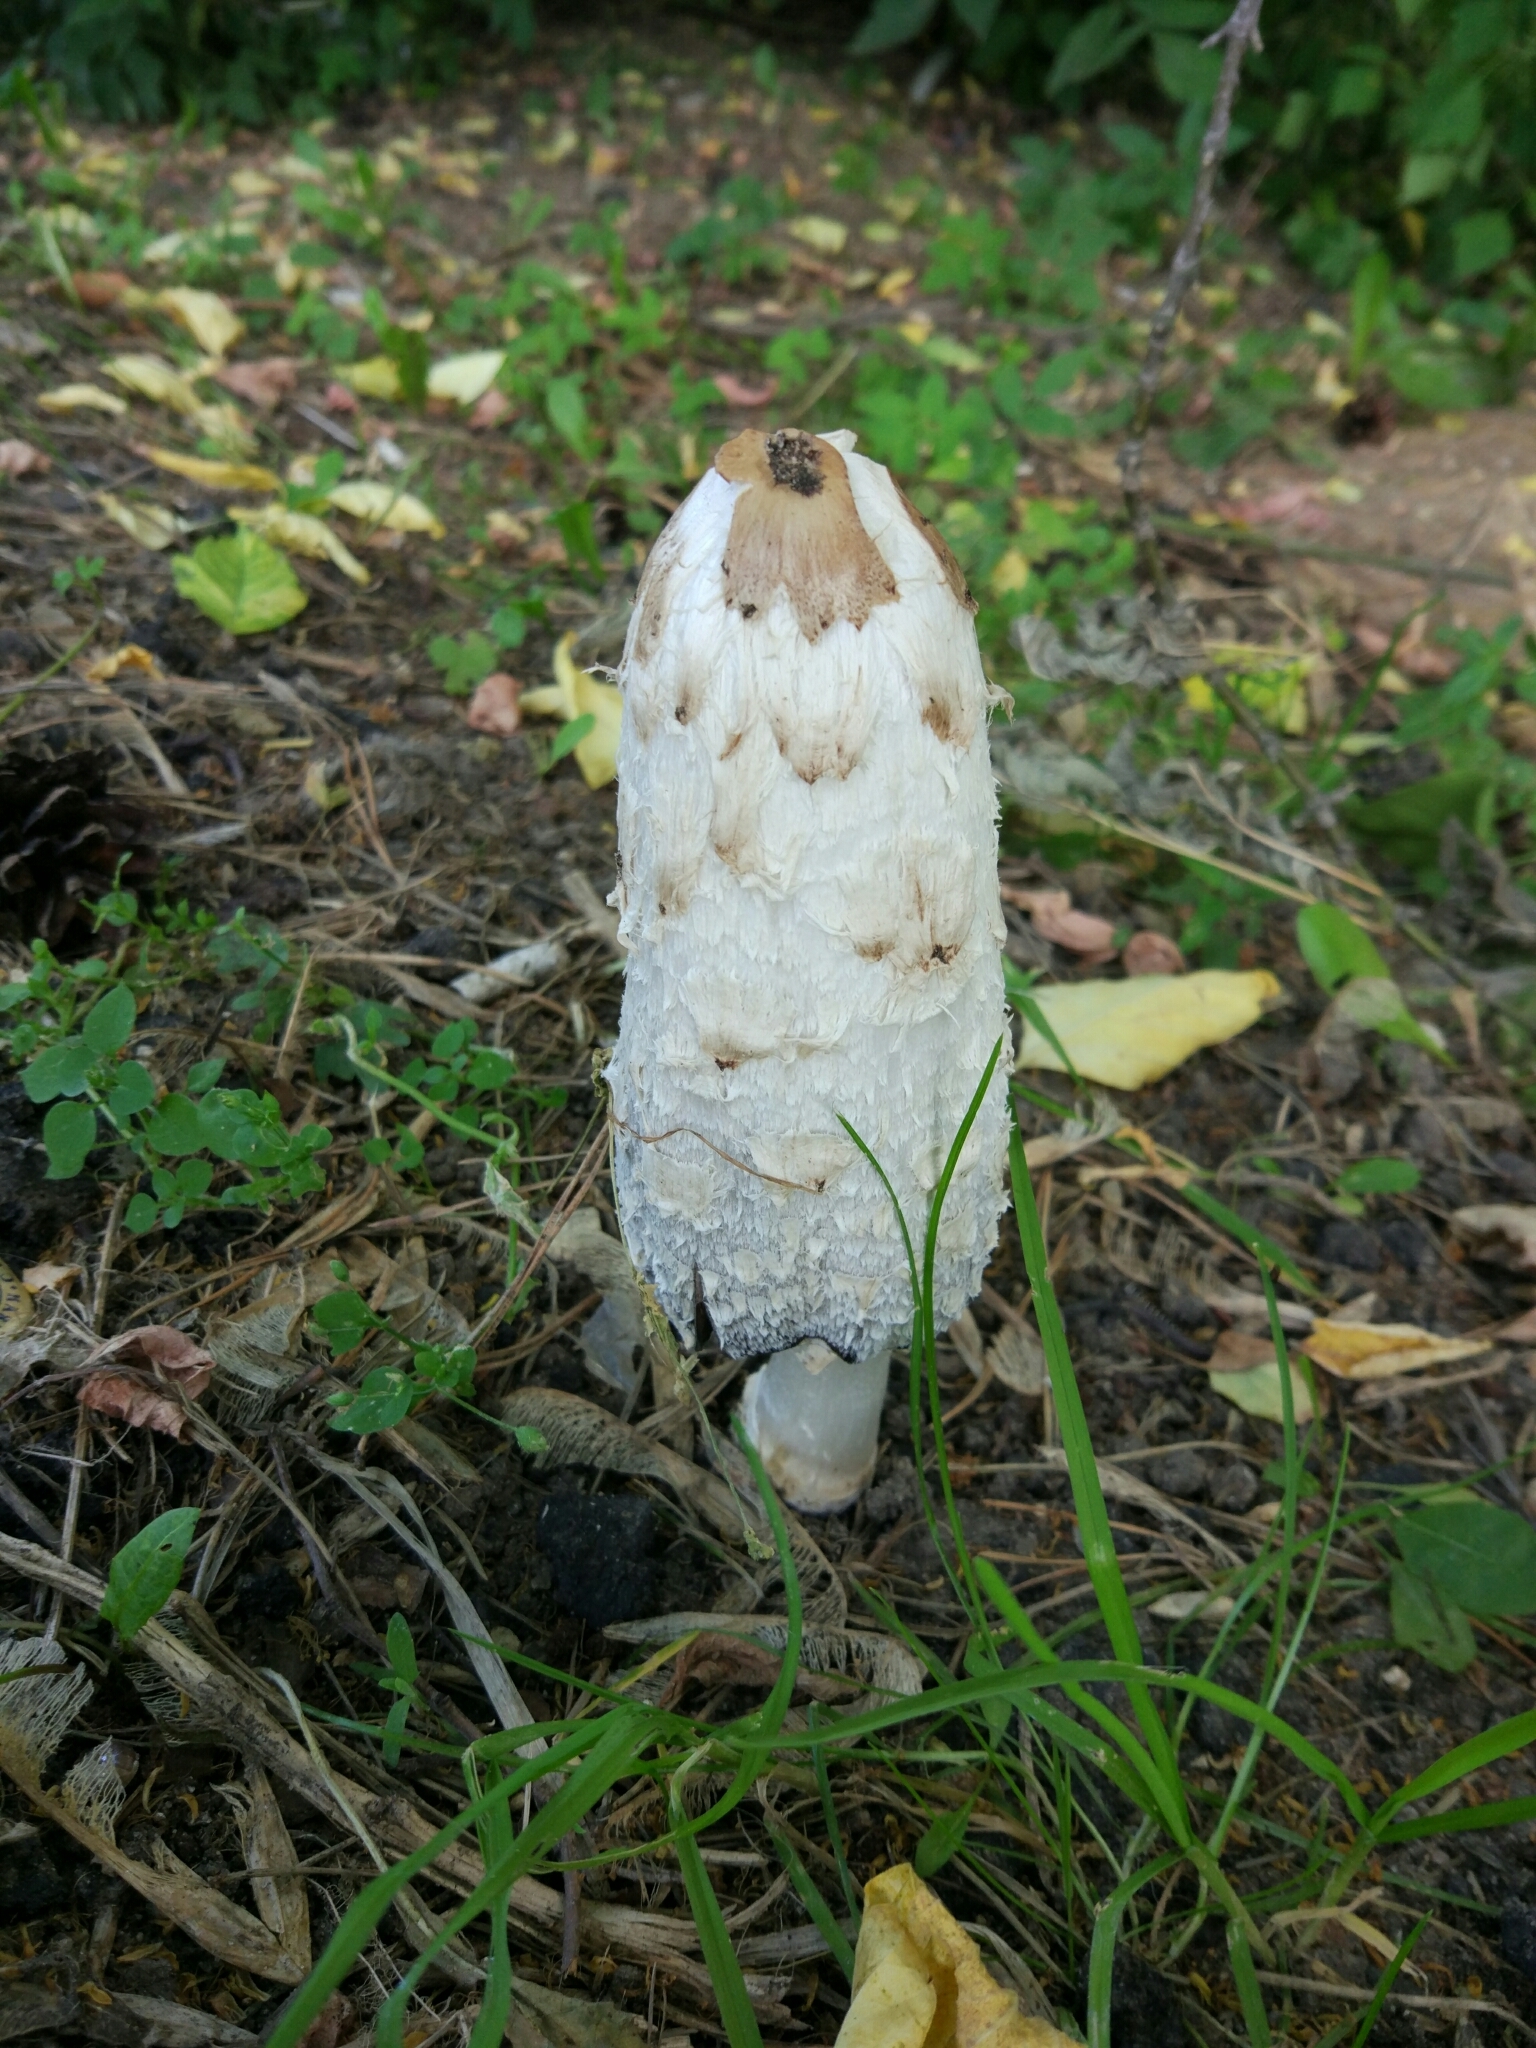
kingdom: Fungi
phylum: Basidiomycota
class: Agaricomycetes
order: Agaricales
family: Agaricaceae
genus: Coprinus
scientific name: Coprinus comatus
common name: Lawyer's wig
